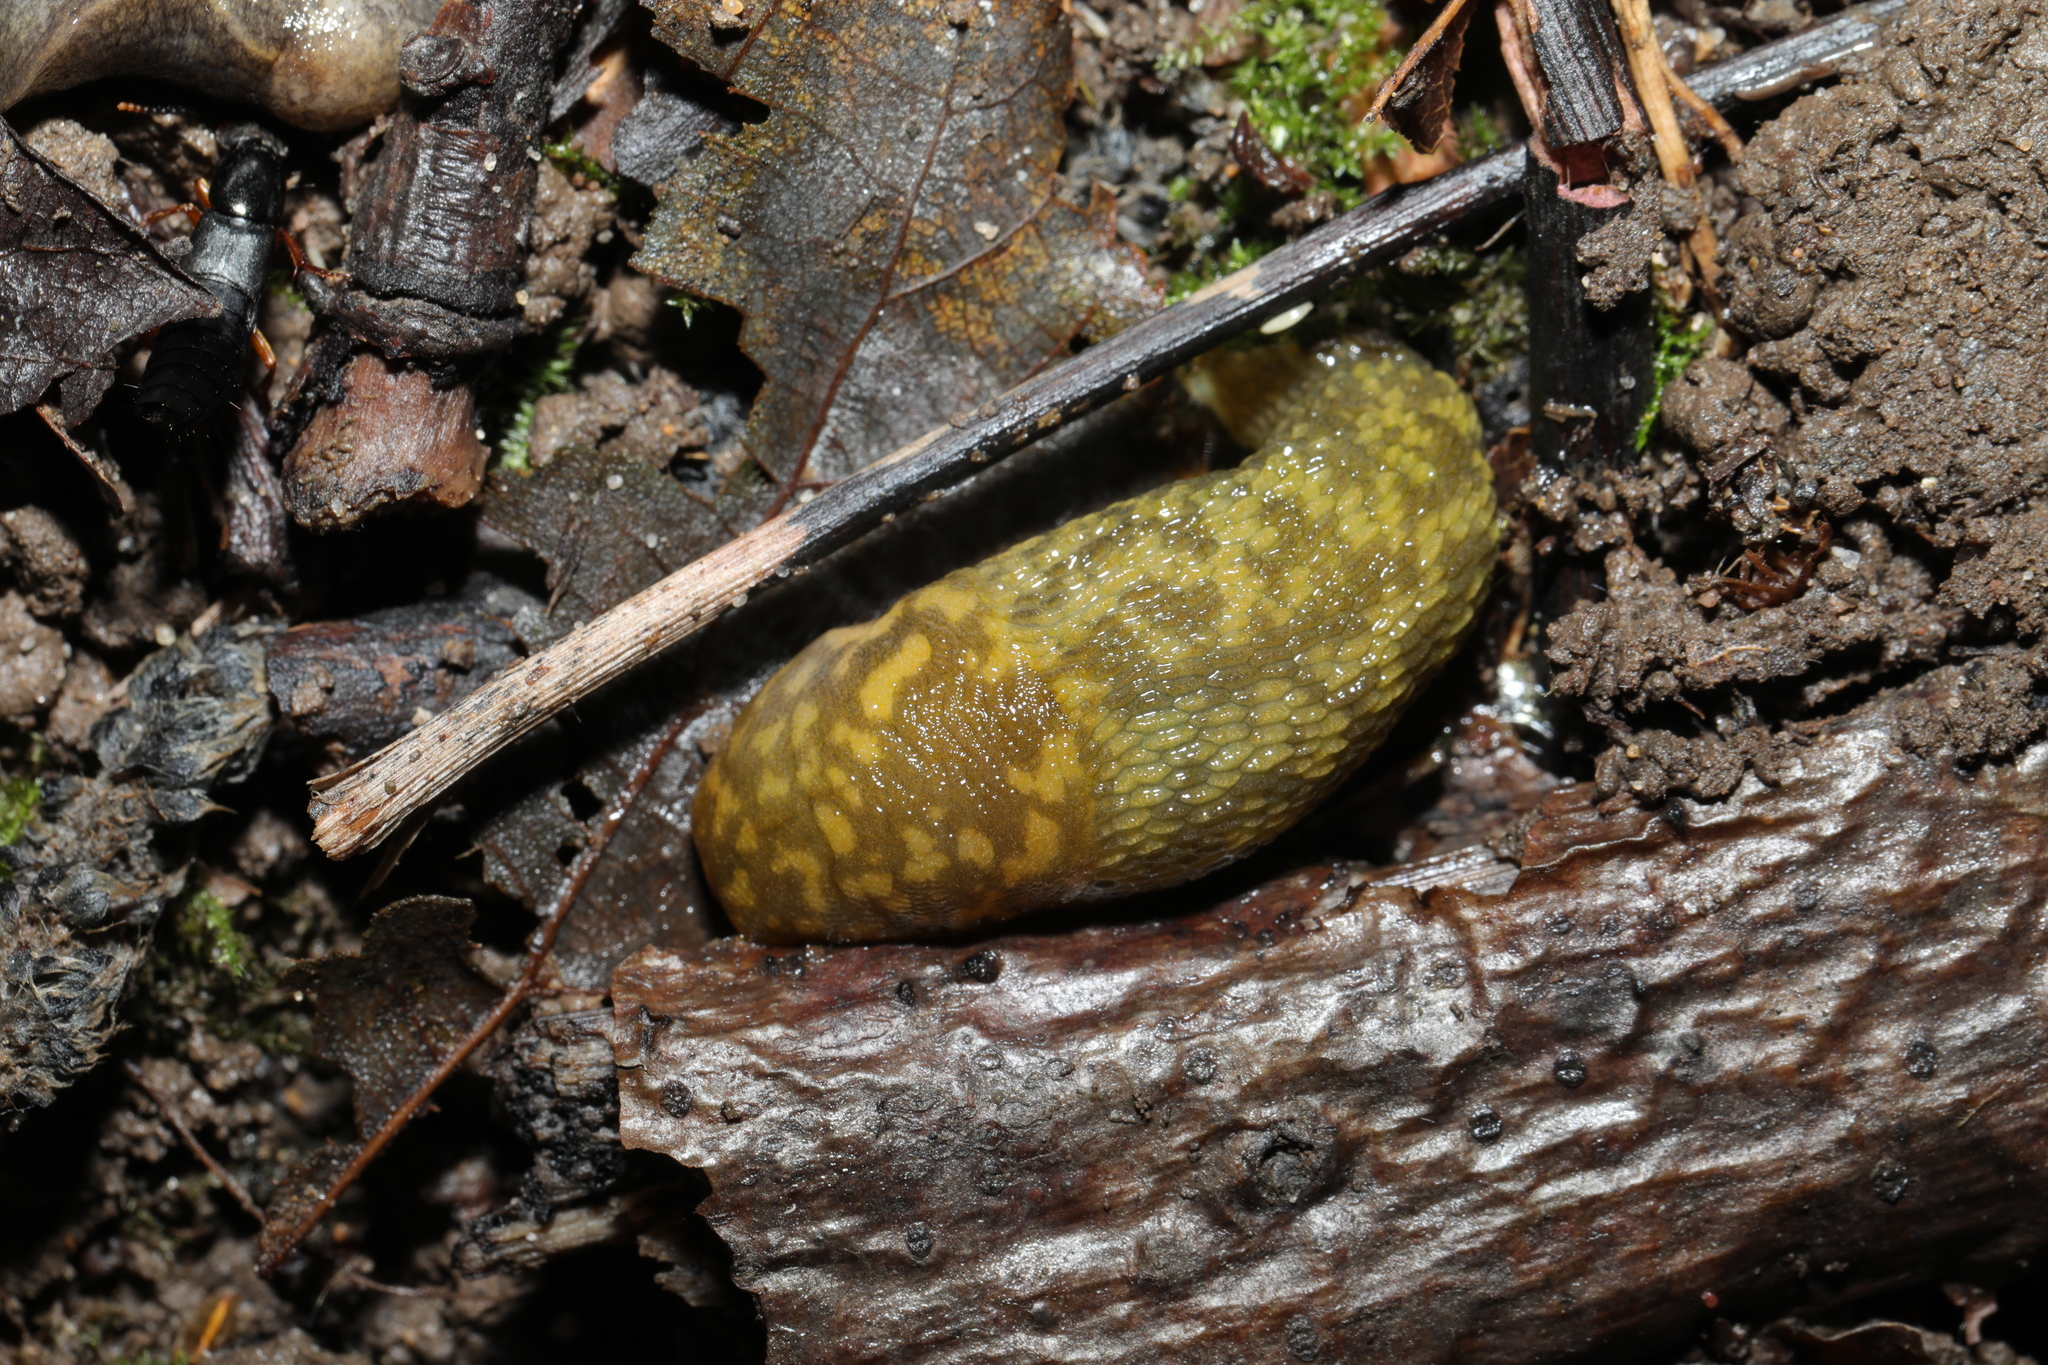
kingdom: Animalia
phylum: Mollusca
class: Gastropoda
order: Stylommatophora
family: Limacidae
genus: Limacus
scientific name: Limacus maculatus
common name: Irish yellow slug
